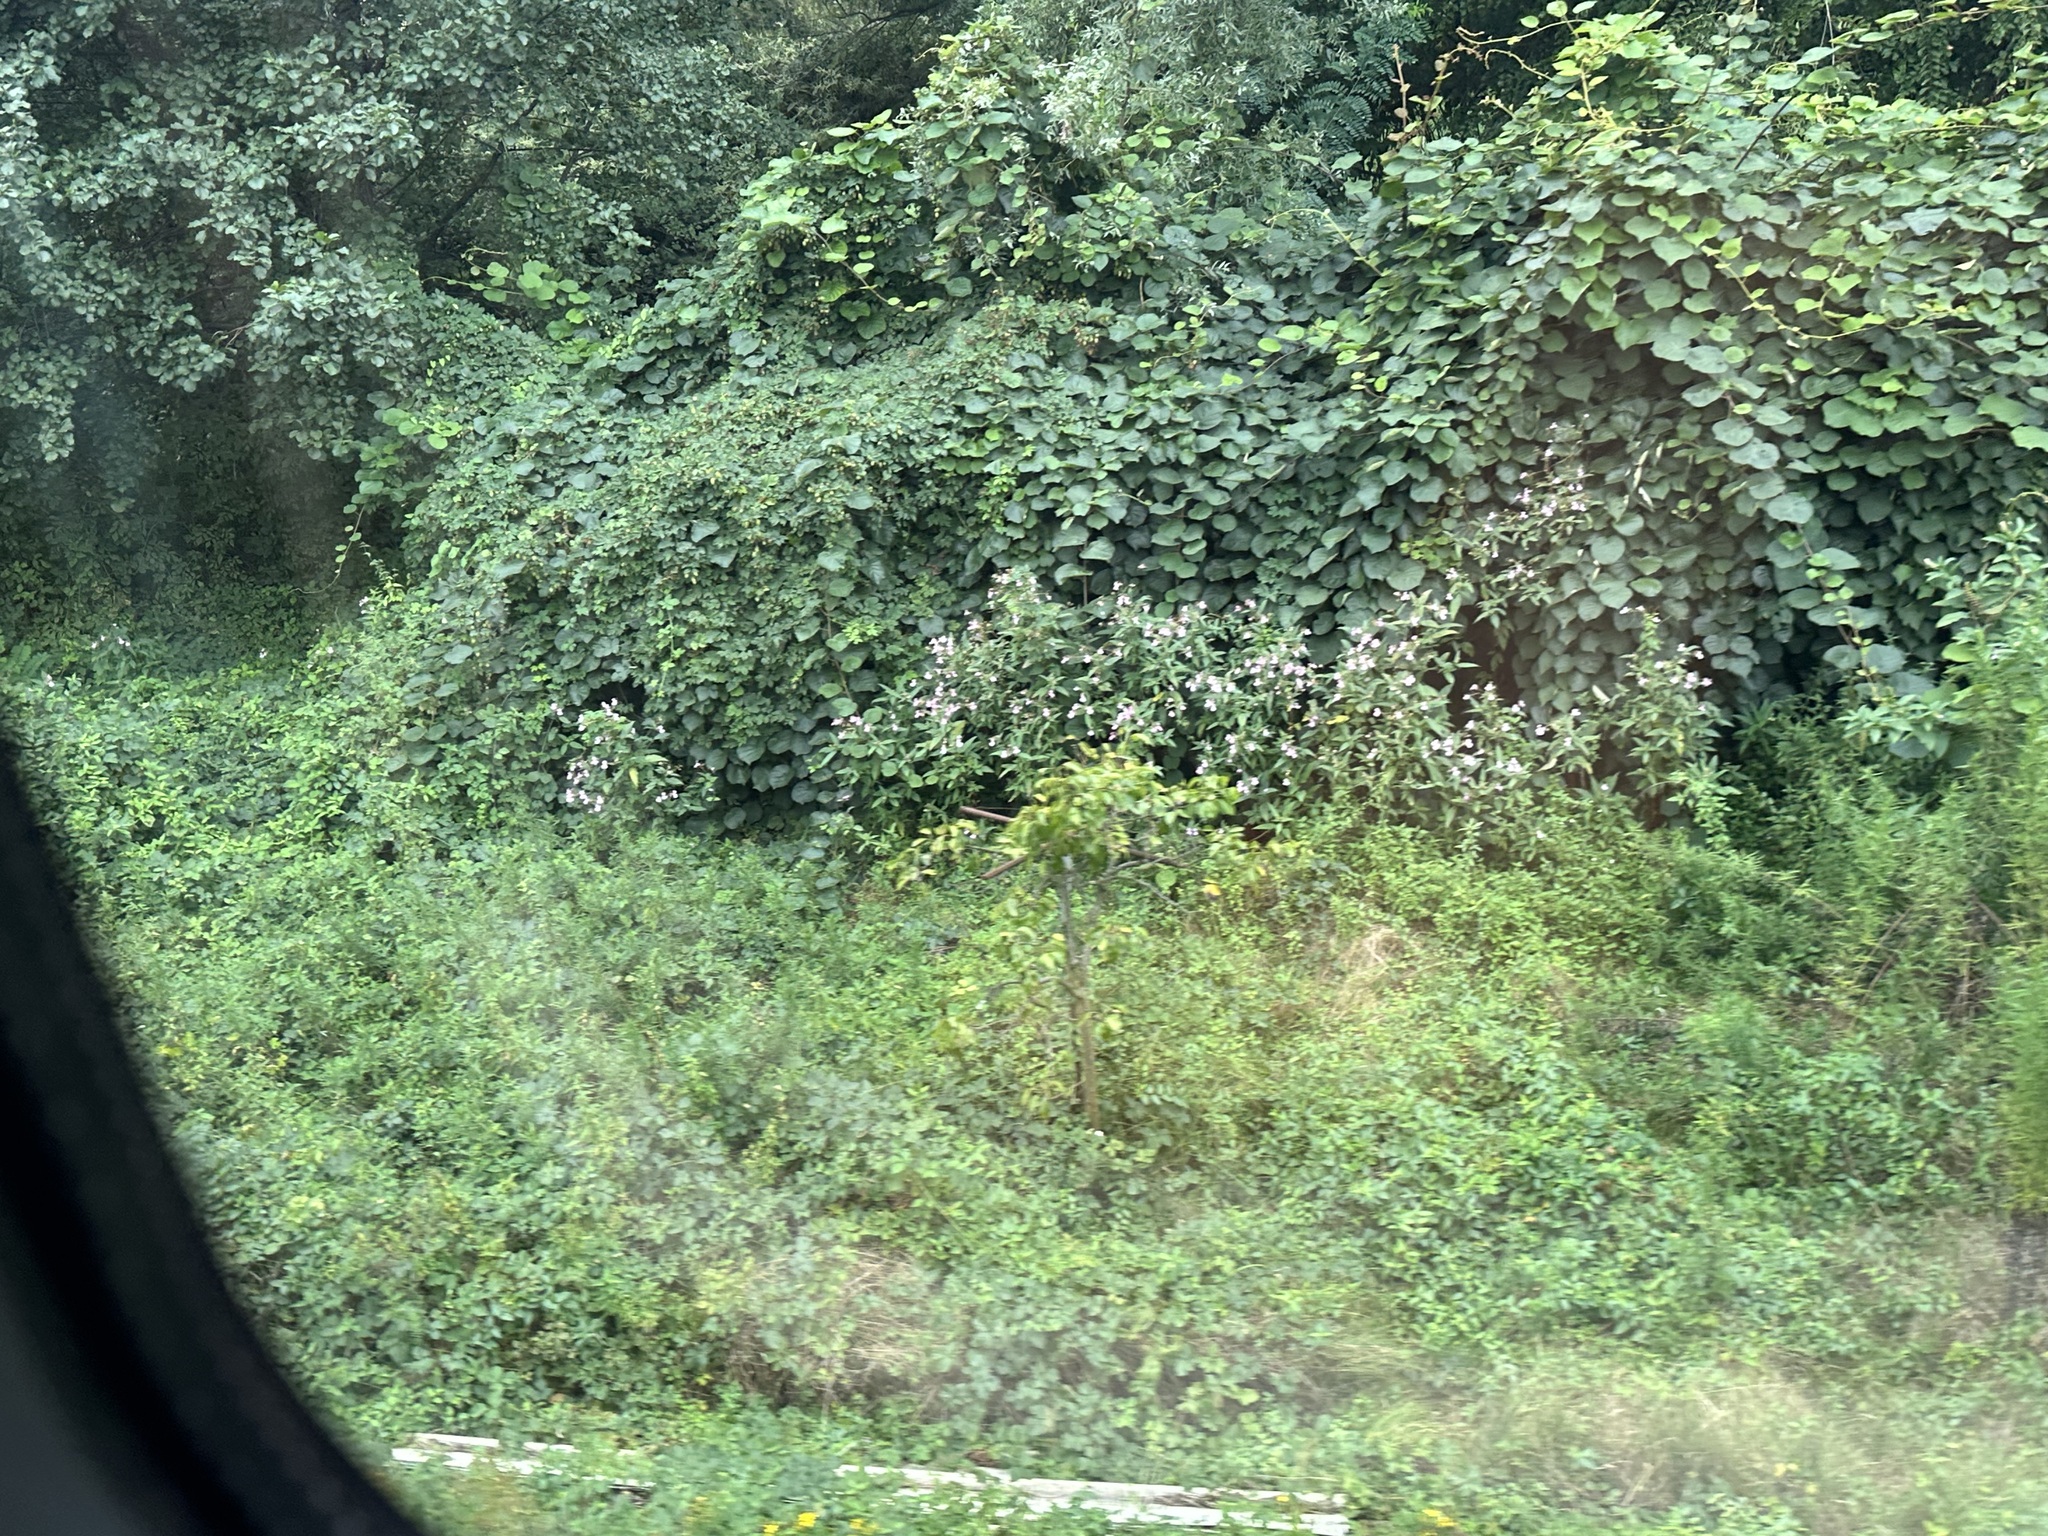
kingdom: Plantae
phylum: Tracheophyta
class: Magnoliopsida
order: Ericales
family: Balsaminaceae
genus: Impatiens
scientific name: Impatiens glandulifera
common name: Himalayan balsam
